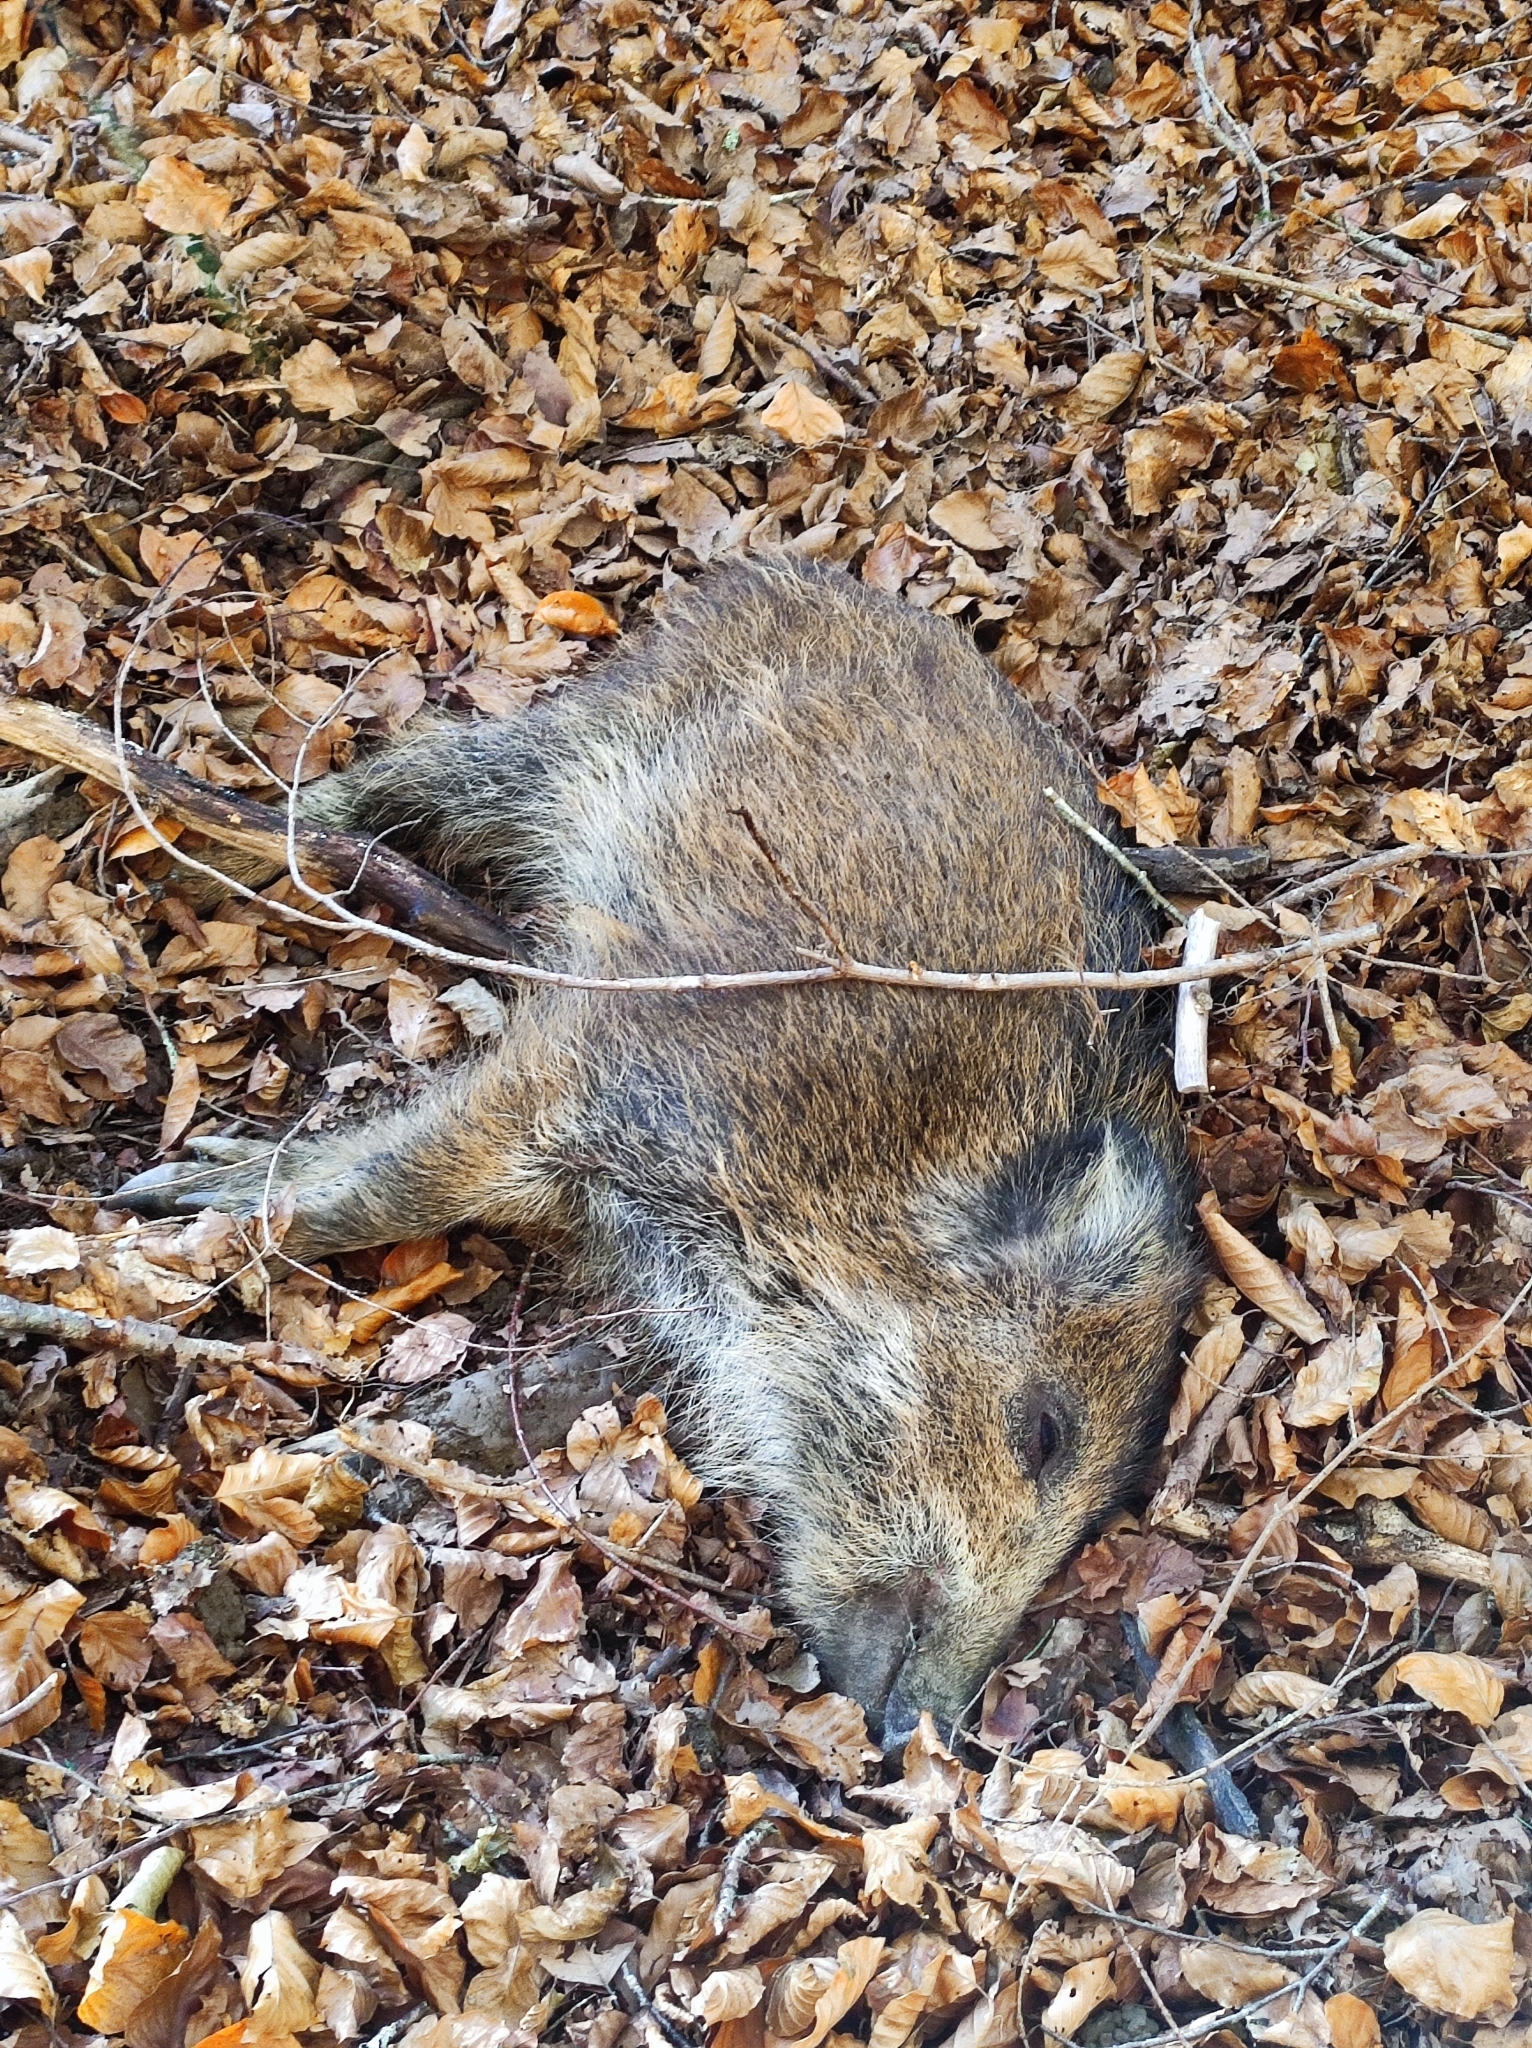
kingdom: Animalia
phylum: Chordata
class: Mammalia
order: Artiodactyla
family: Suidae
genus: Sus
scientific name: Sus scrofa
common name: Wild boar
